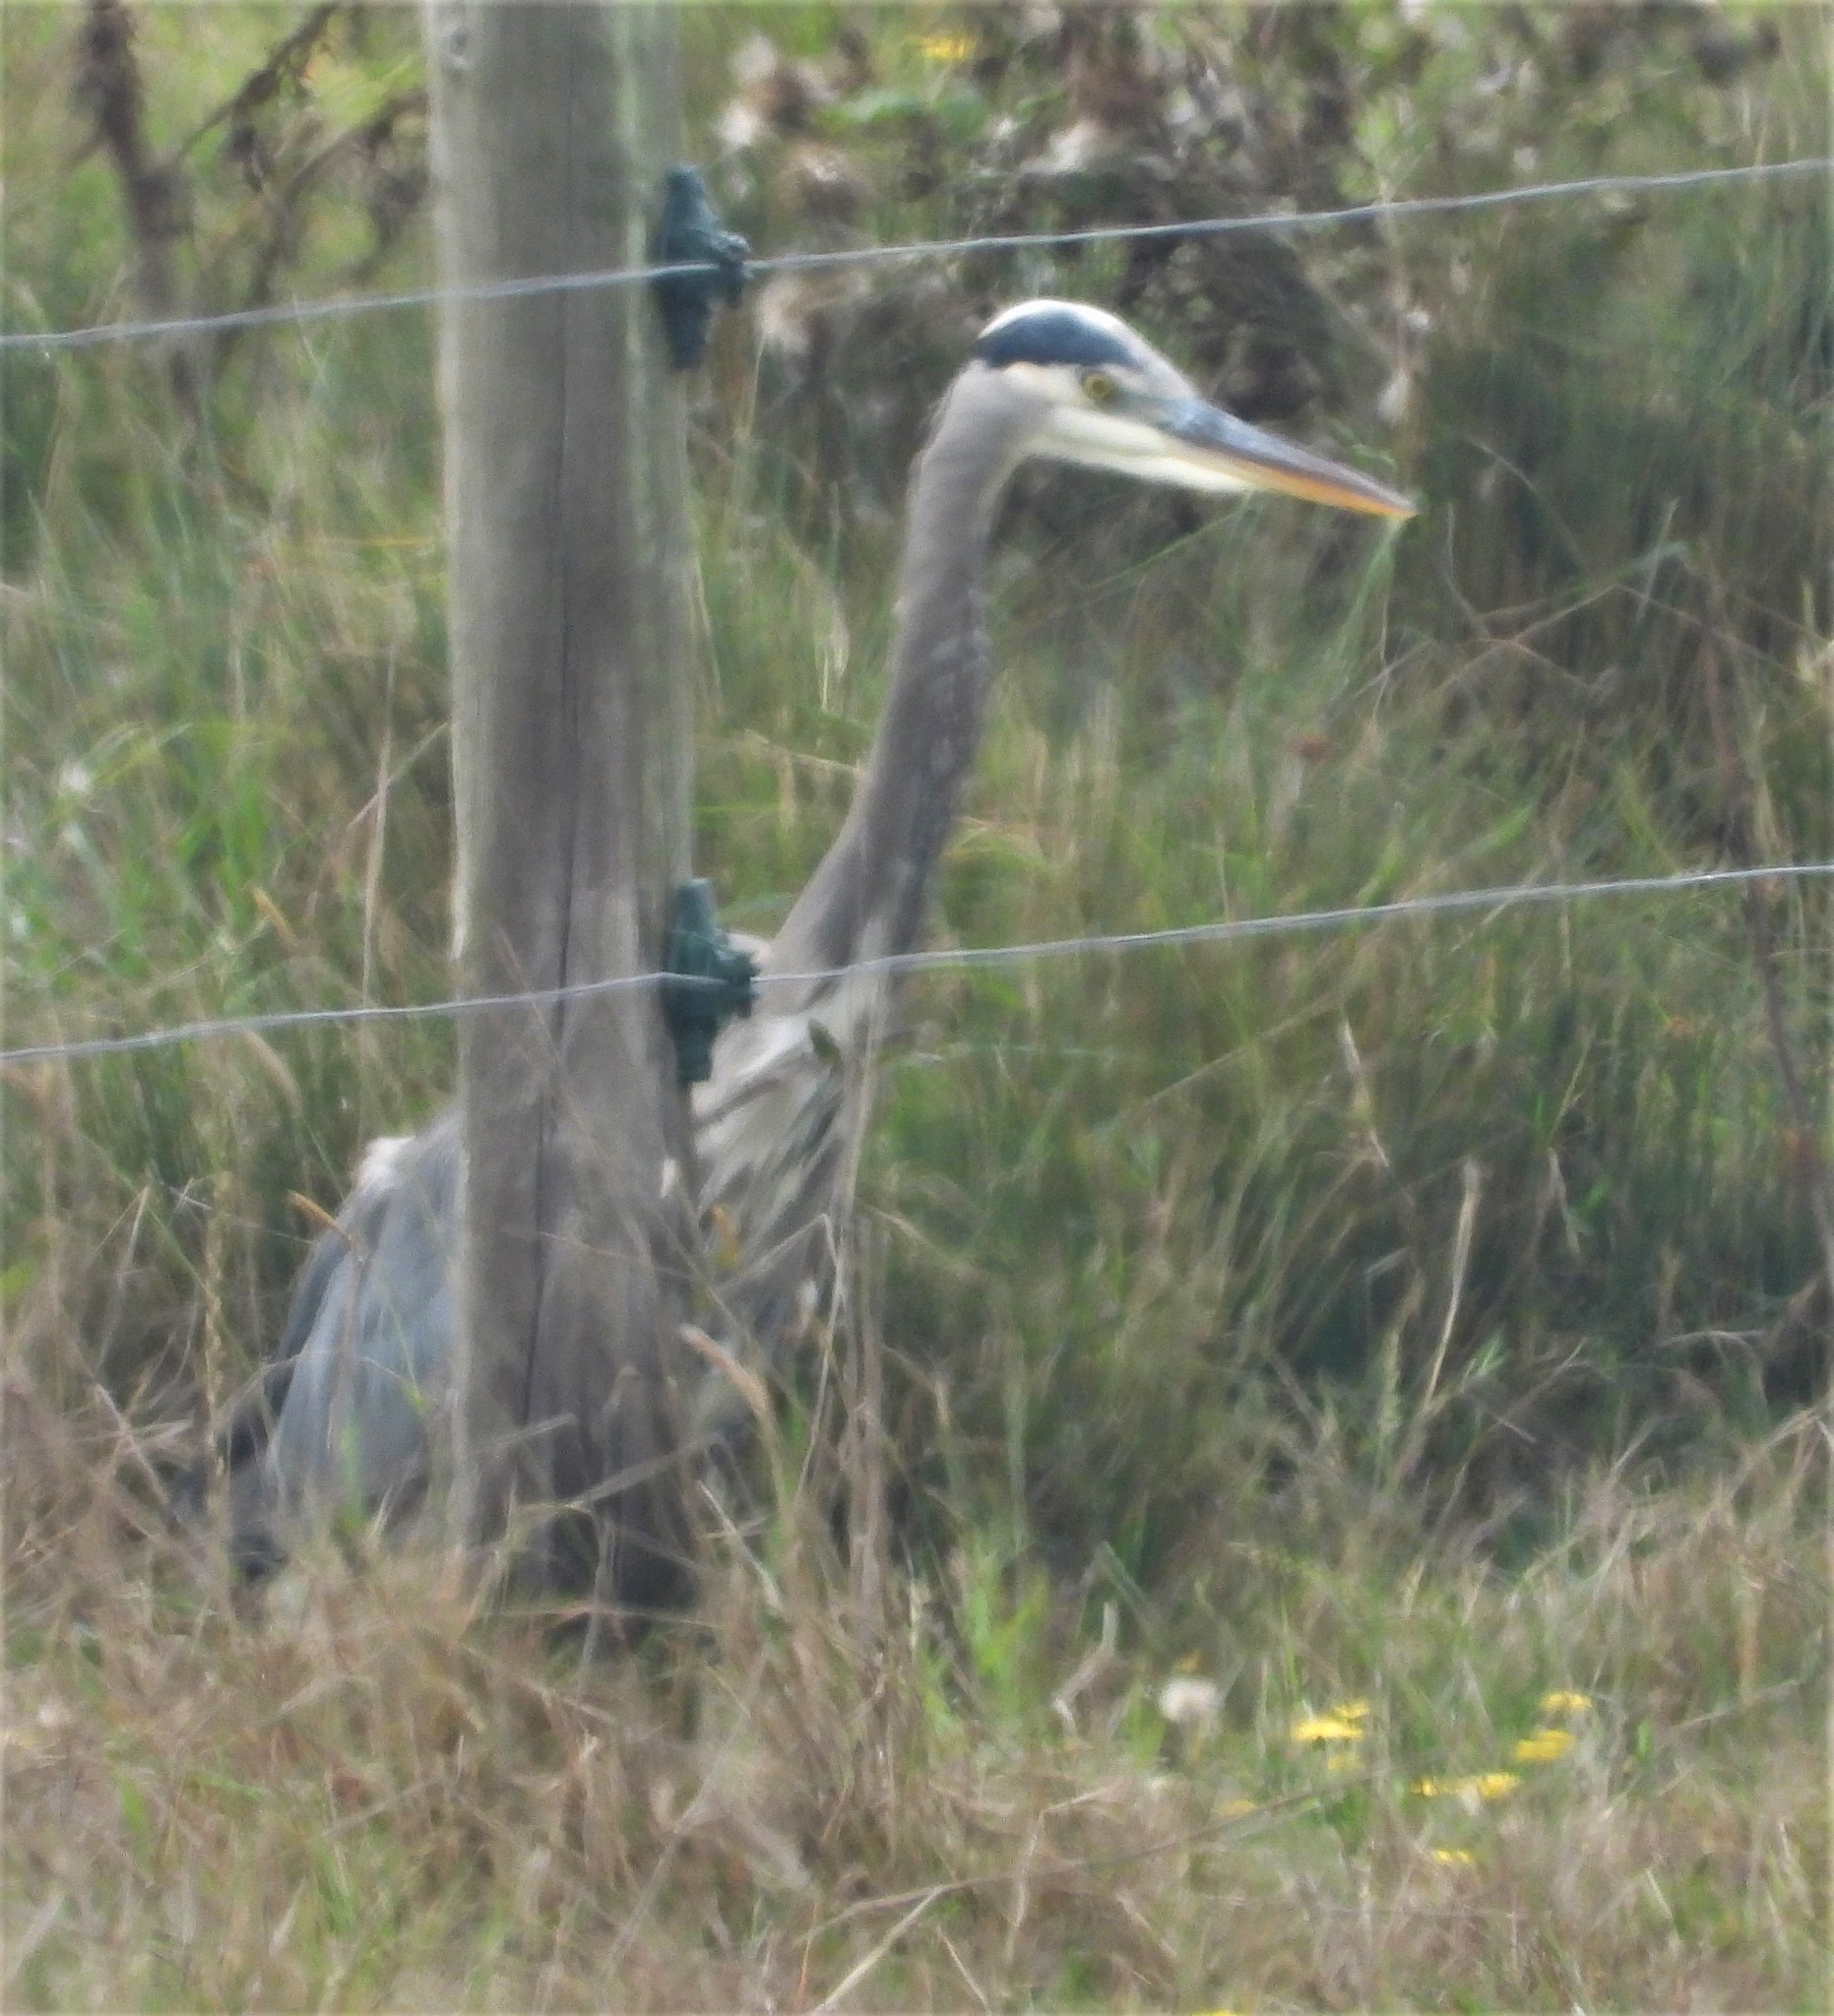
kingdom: Animalia
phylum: Chordata
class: Aves
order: Pelecaniformes
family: Ardeidae
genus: Ardea
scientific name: Ardea herodias
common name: Great blue heron
